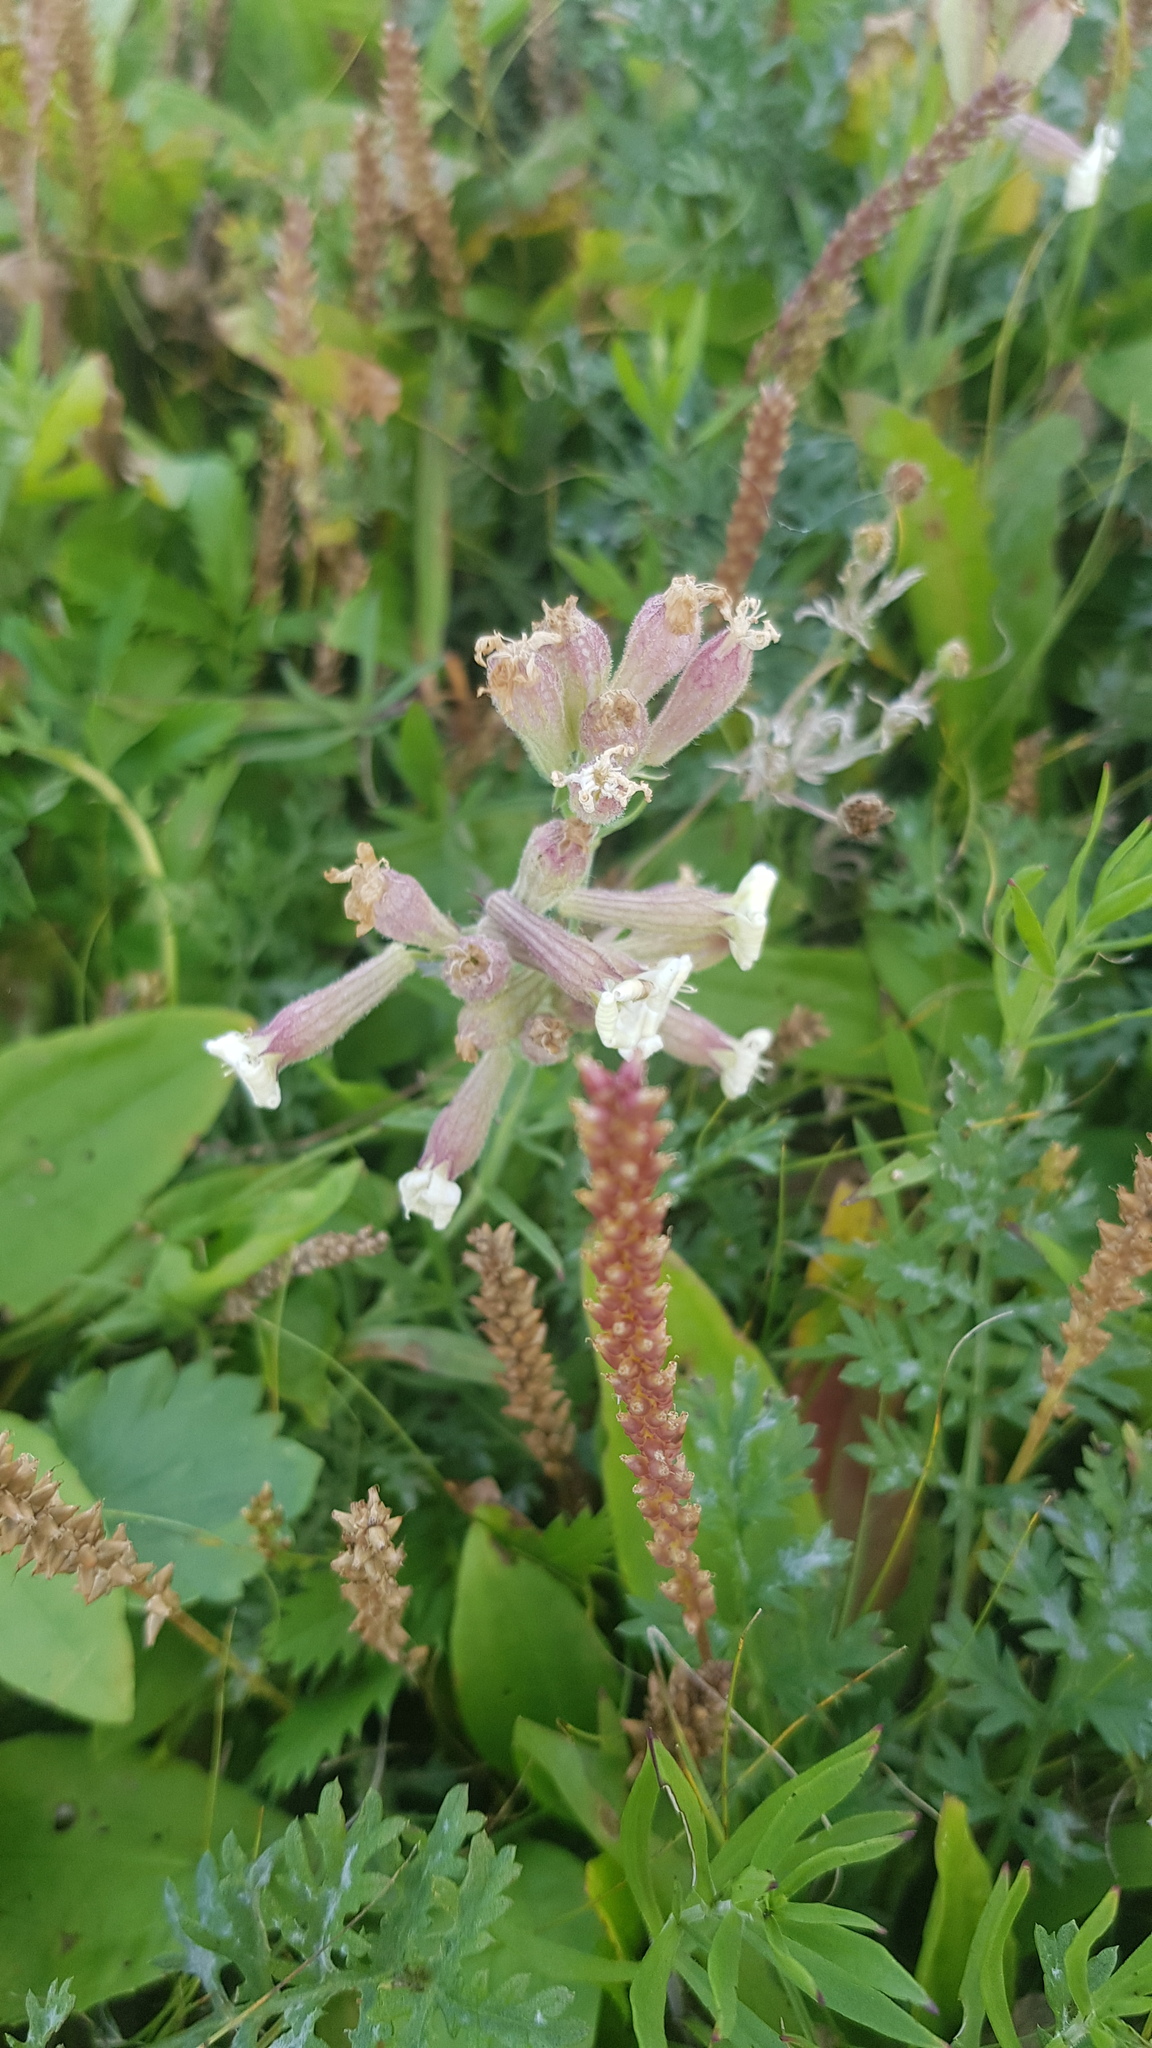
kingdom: Plantae
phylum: Tracheophyta
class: Magnoliopsida
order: Caryophyllales
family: Caryophyllaceae
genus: Silene
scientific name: Silene repens
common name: Pink campion
